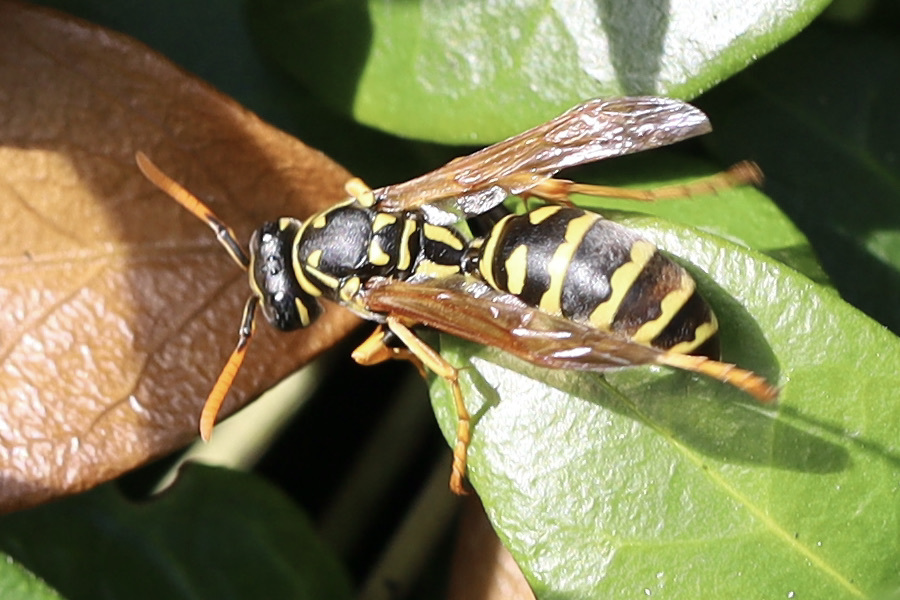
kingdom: Animalia
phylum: Arthropoda
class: Insecta
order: Hymenoptera
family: Eumenidae
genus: Polistes
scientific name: Polistes dominula
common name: Paper wasp
